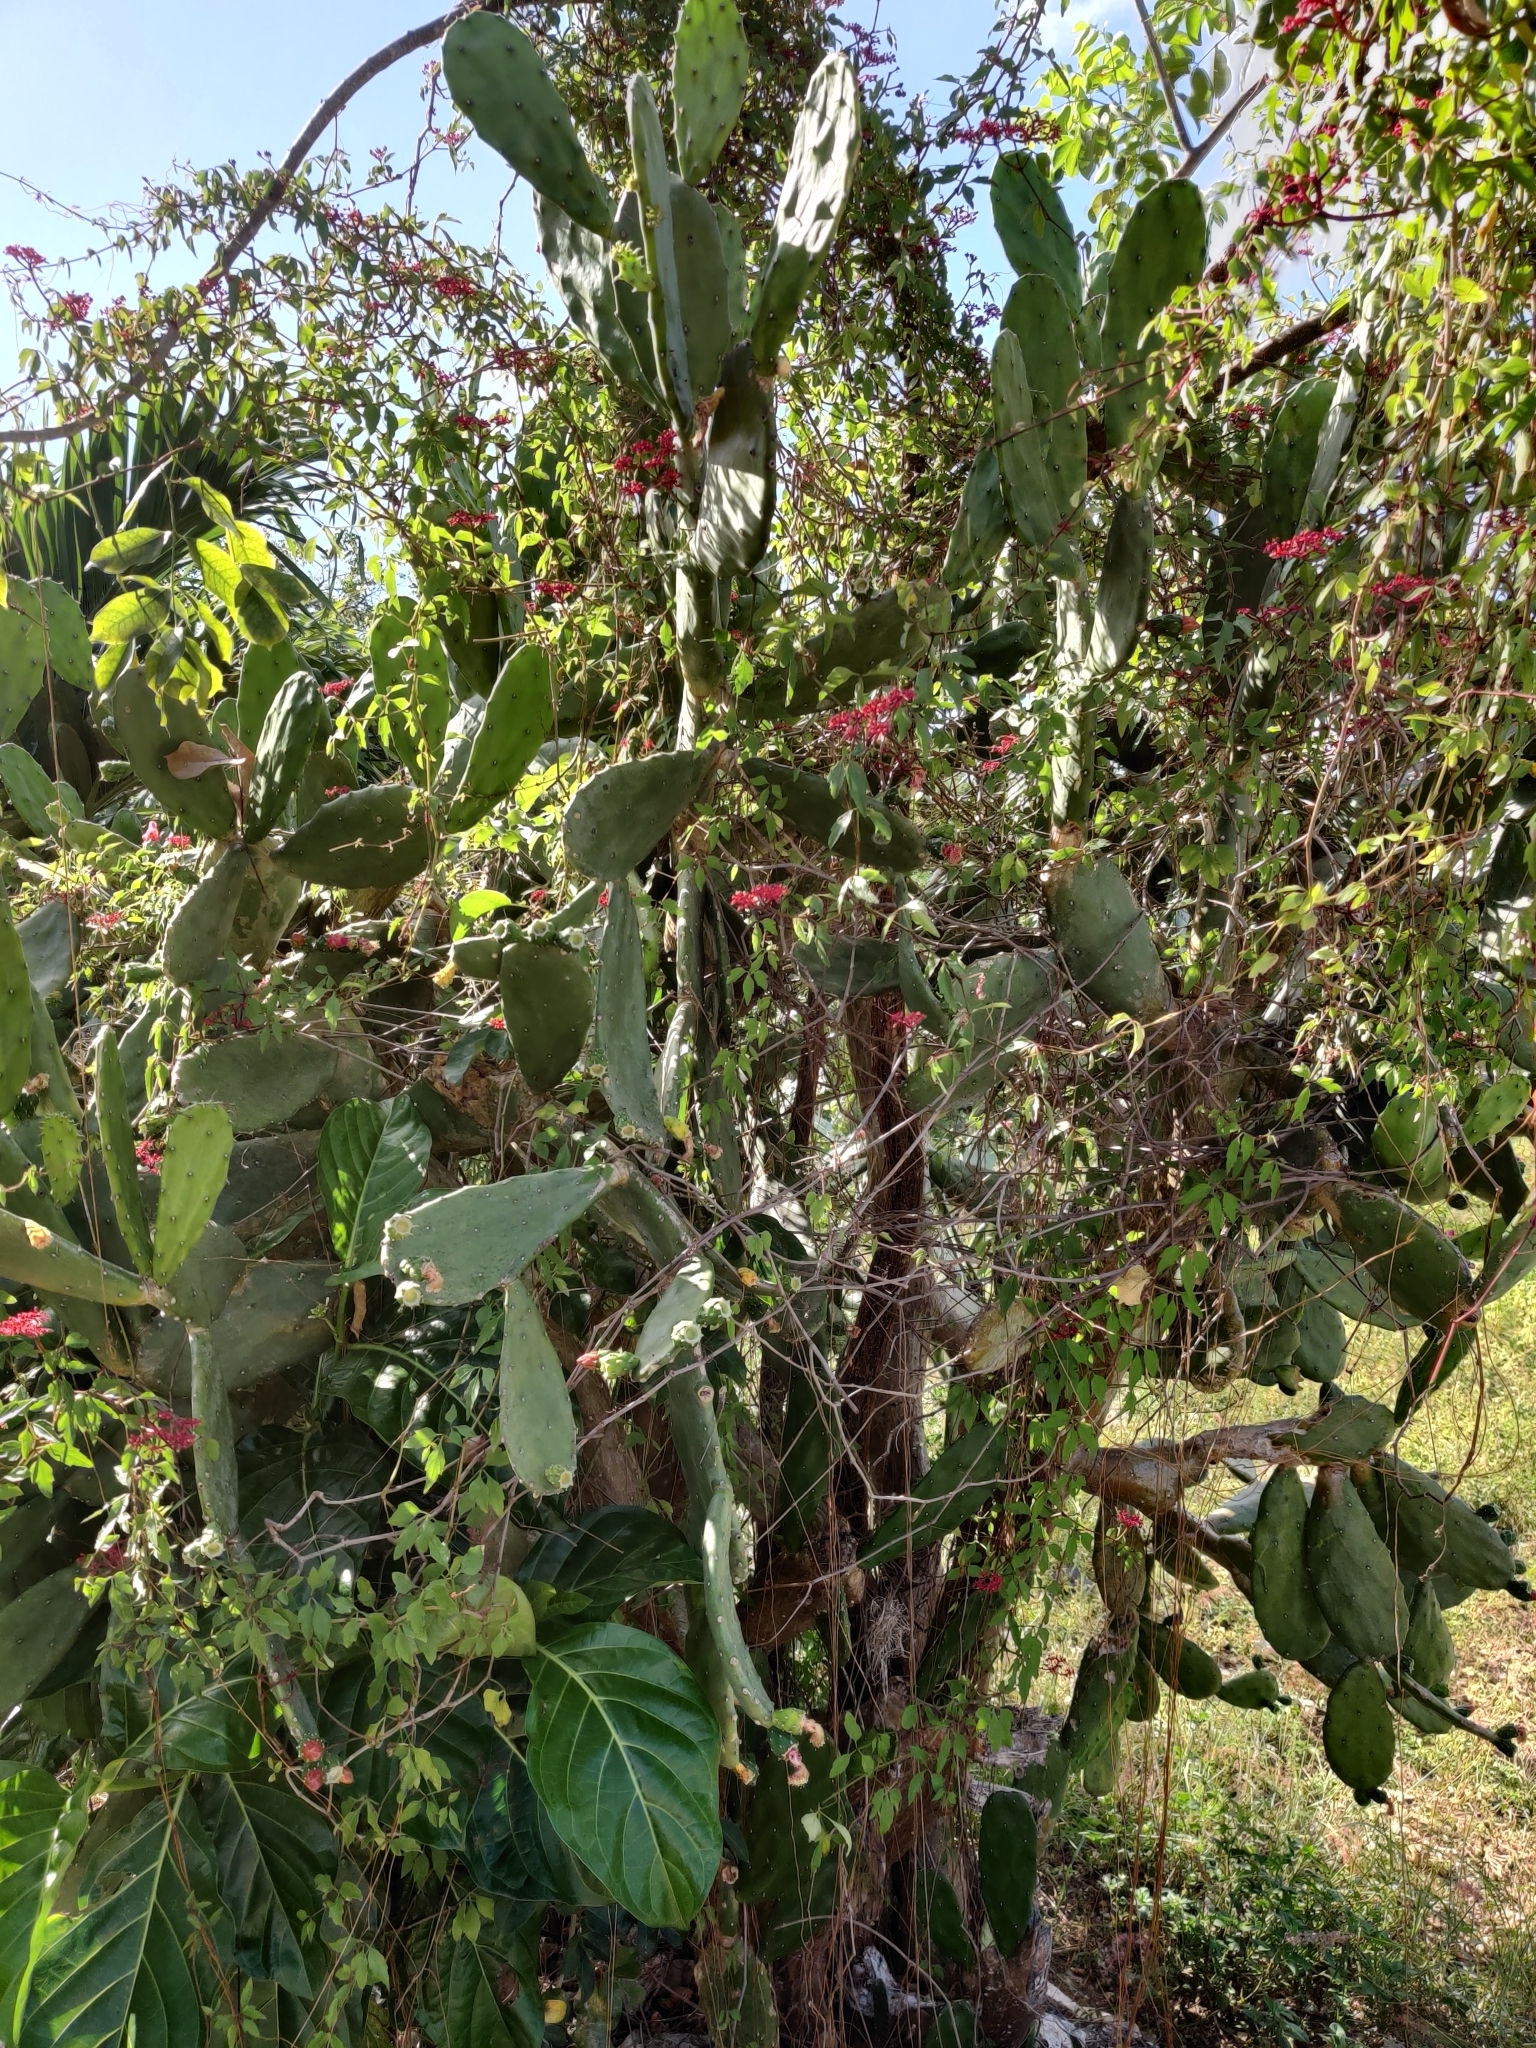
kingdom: Plantae
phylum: Tracheophyta
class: Magnoliopsida
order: Caryophyllales
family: Cactaceae
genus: Opuntia
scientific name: Opuntia cochenillifera
